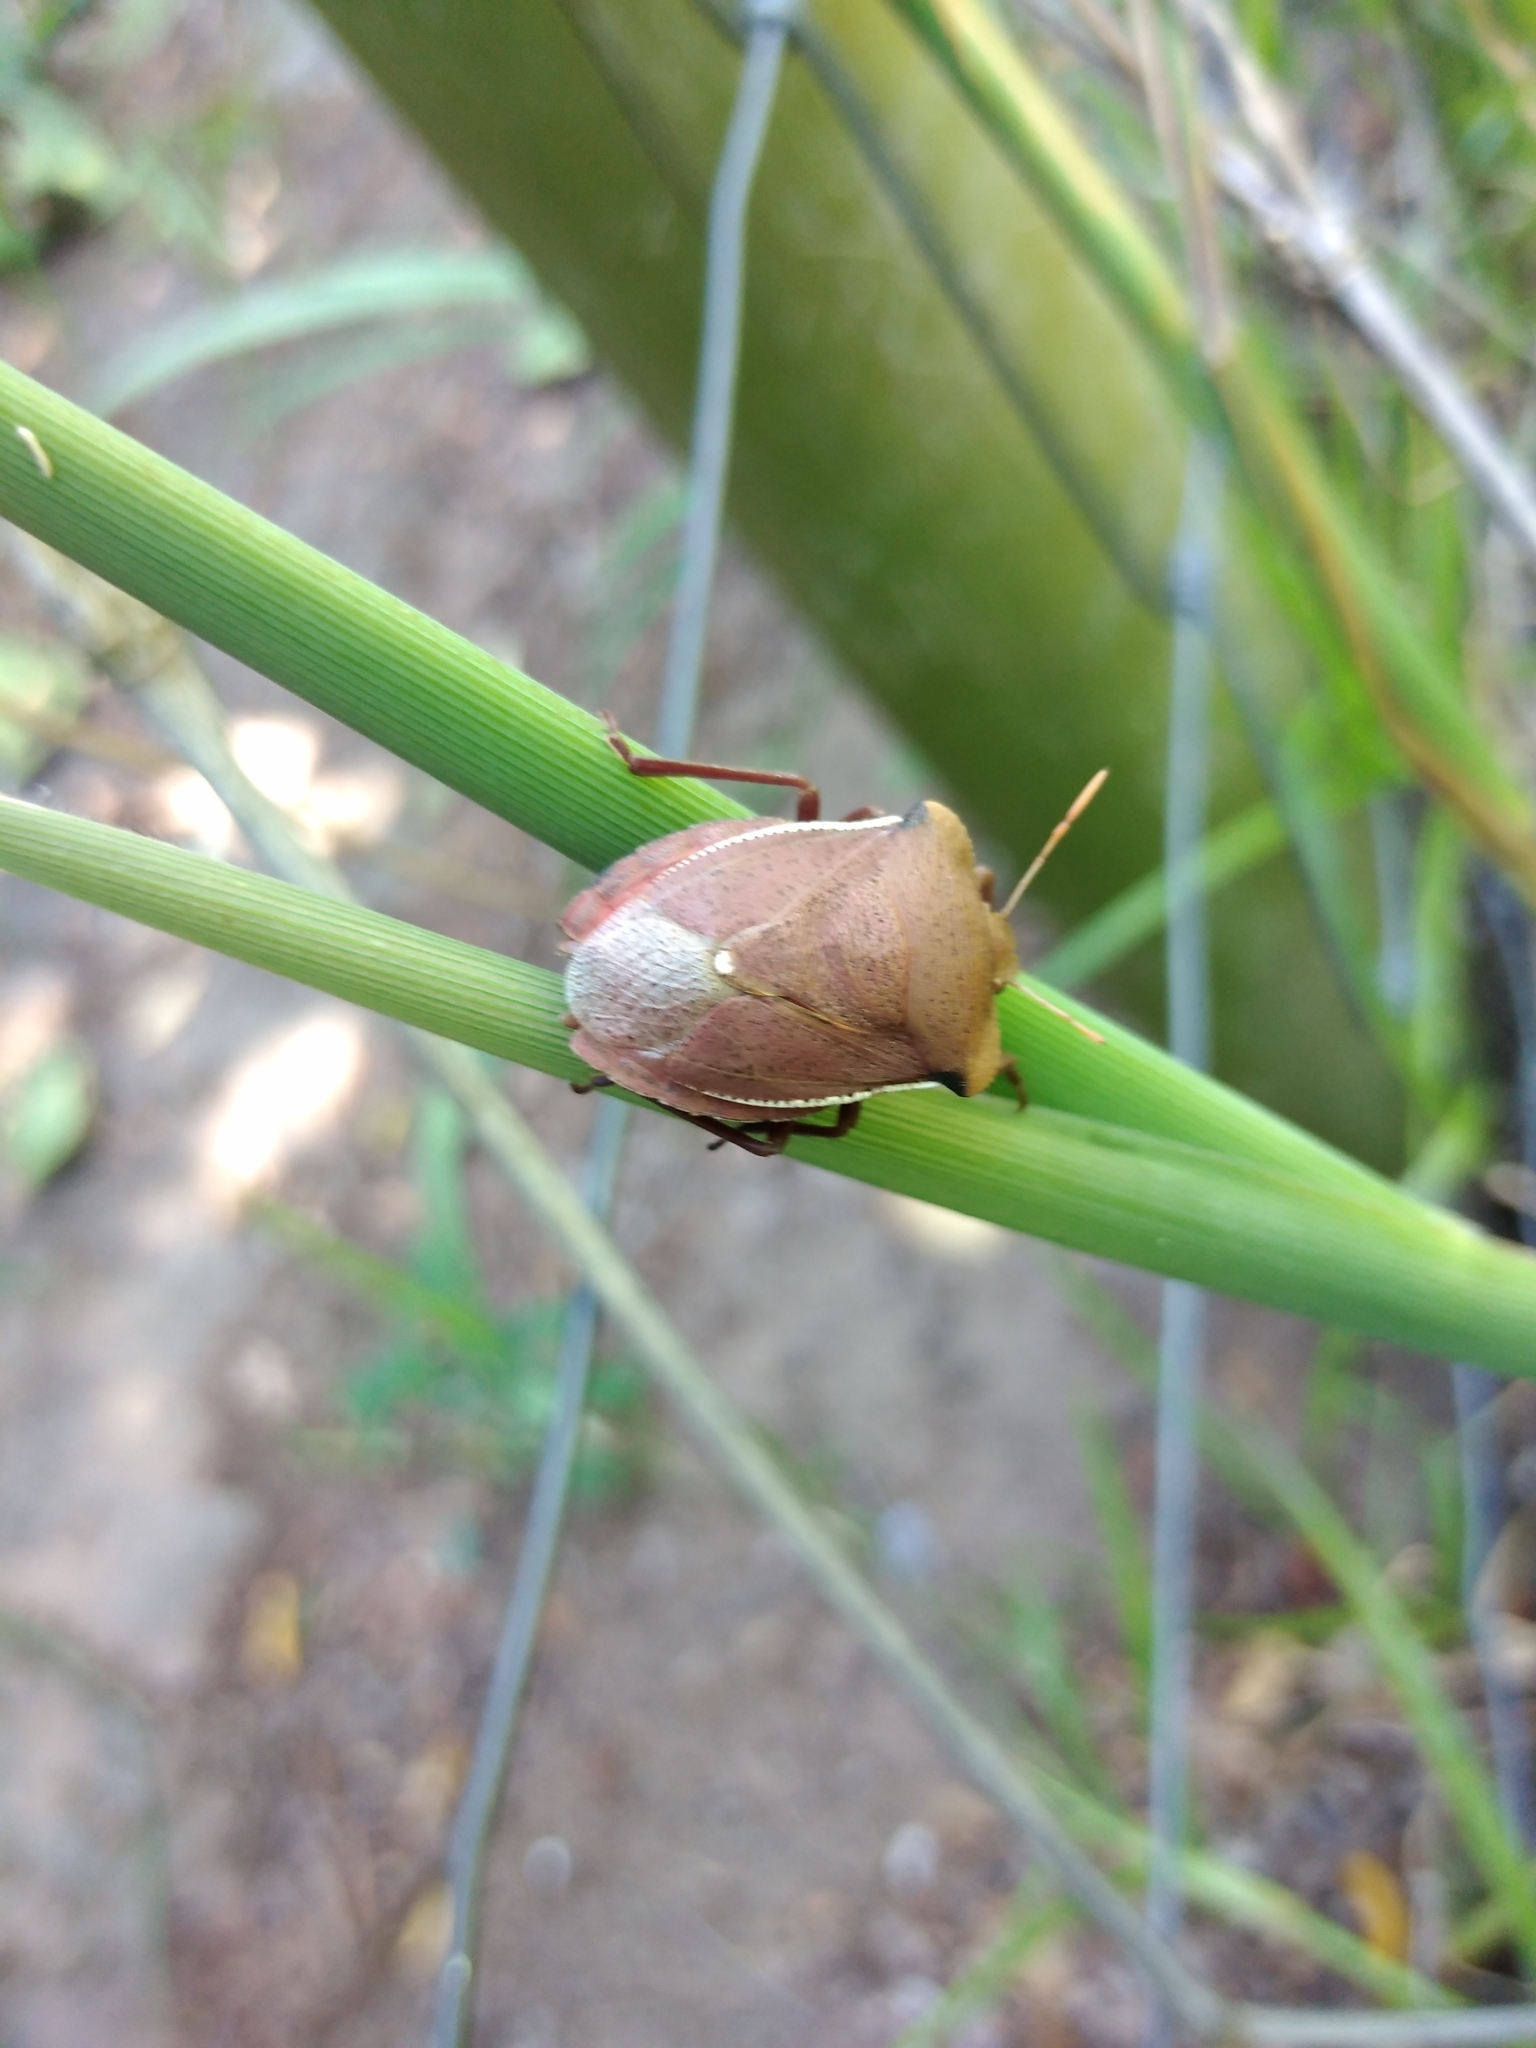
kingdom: Animalia
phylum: Arthropoda
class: Insecta
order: Hemiptera
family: Pentatomidae
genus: Basicryptus
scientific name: Basicryptus costalis
